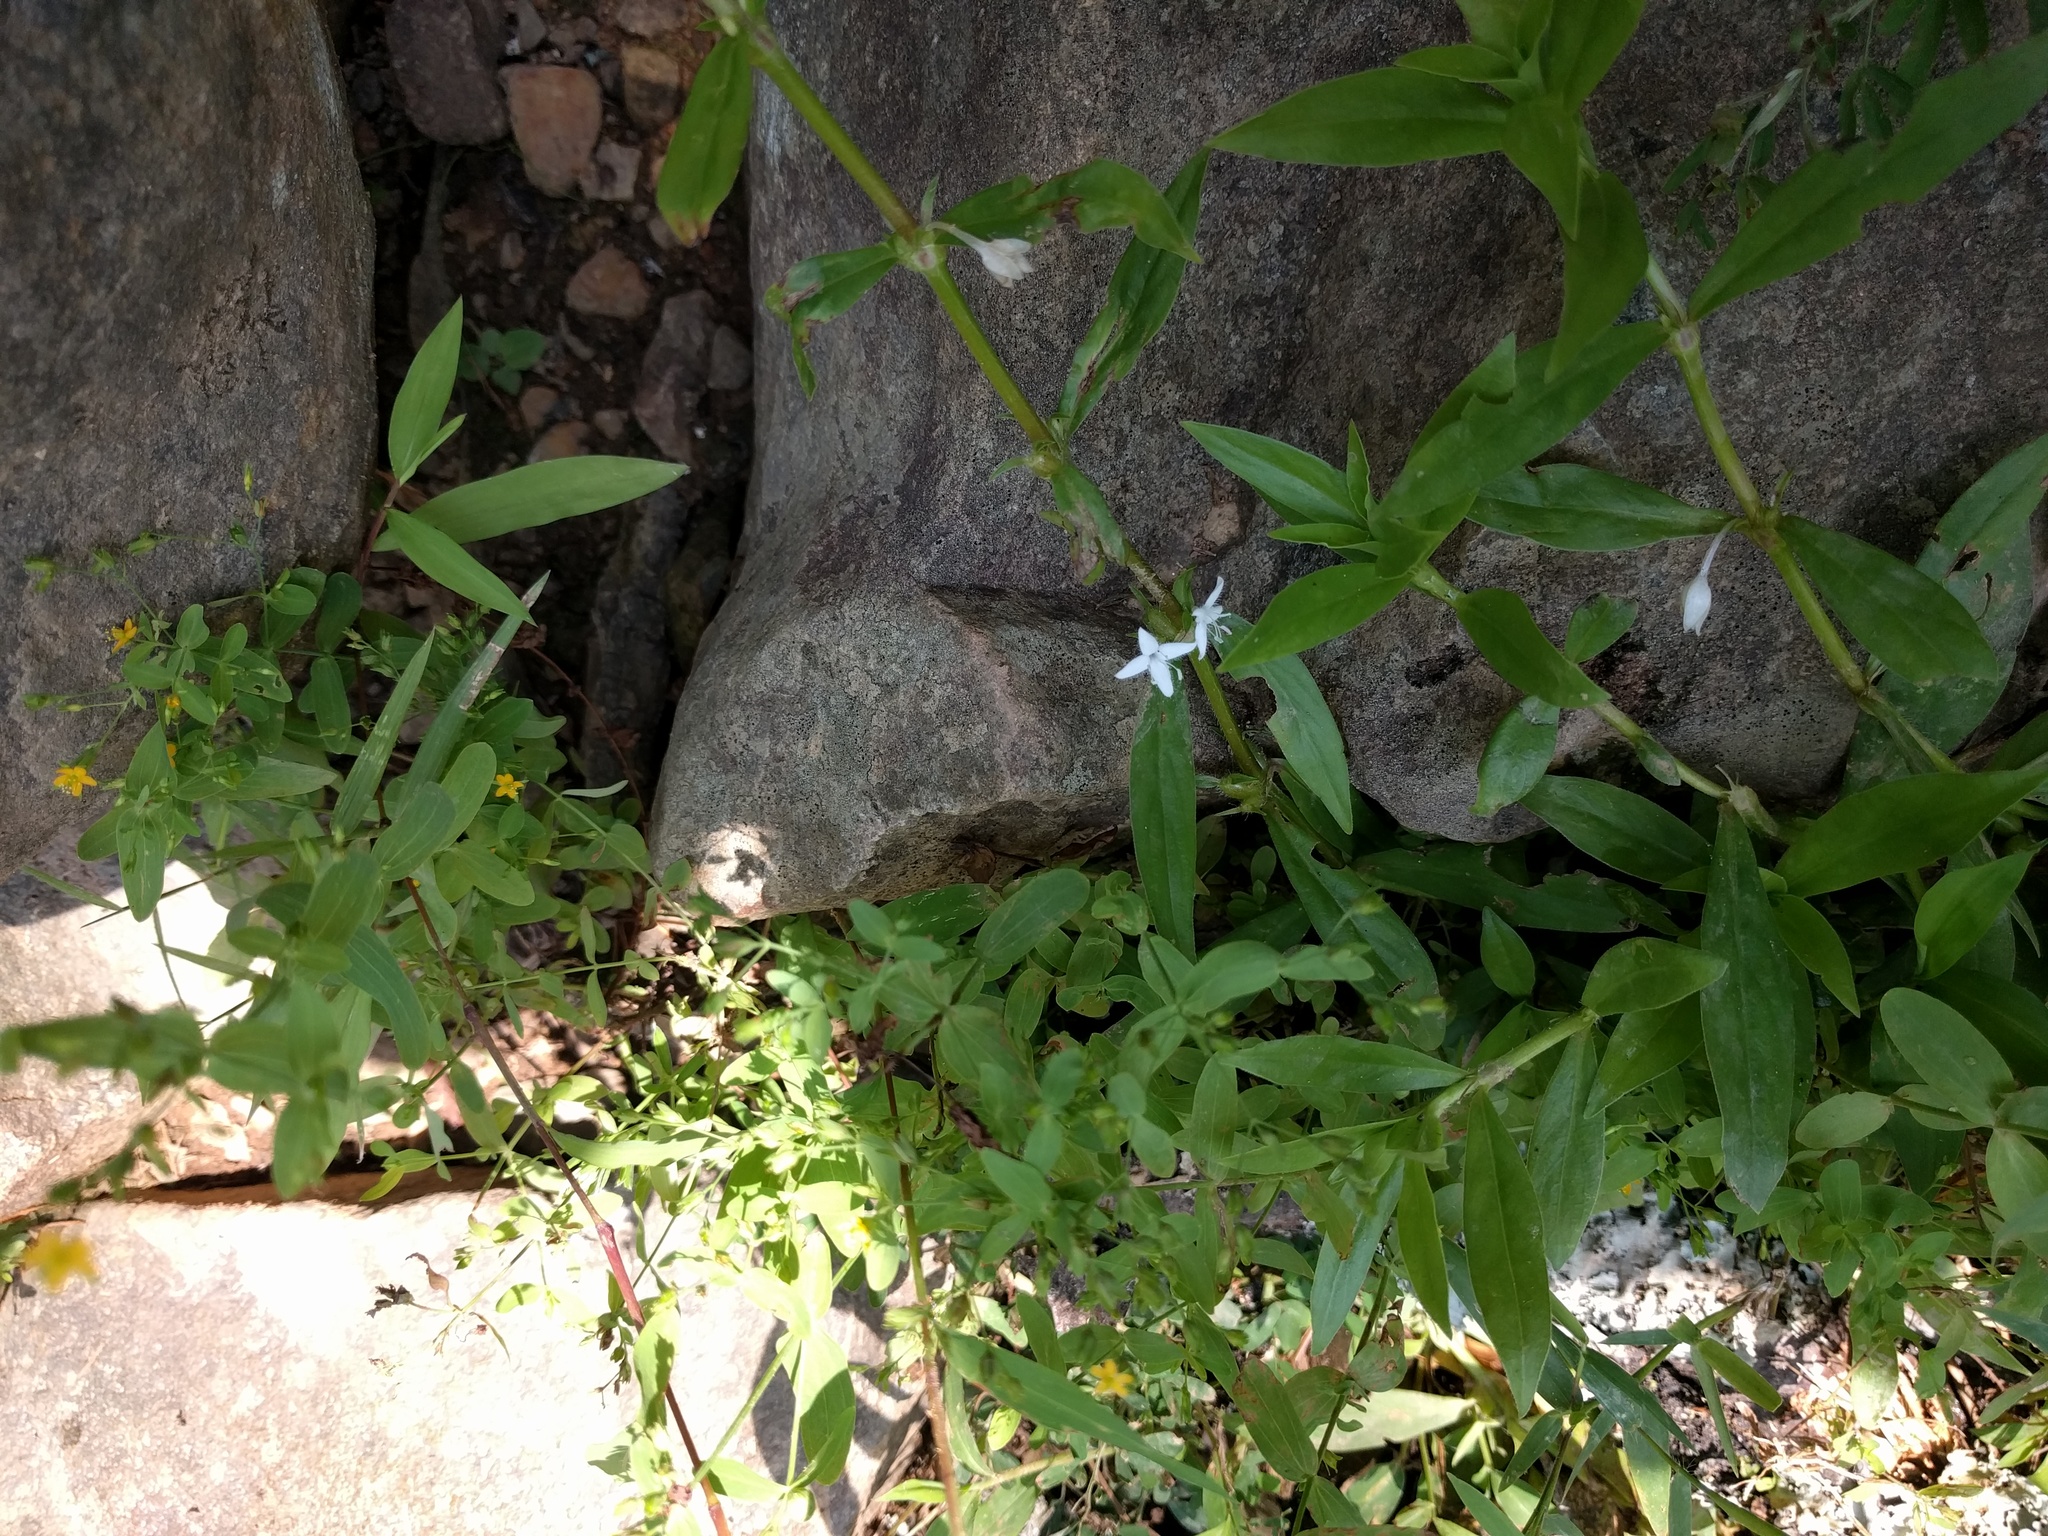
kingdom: Plantae
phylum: Tracheophyta
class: Magnoliopsida
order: Gentianales
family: Rubiaceae
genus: Diodia
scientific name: Diodia virginiana
